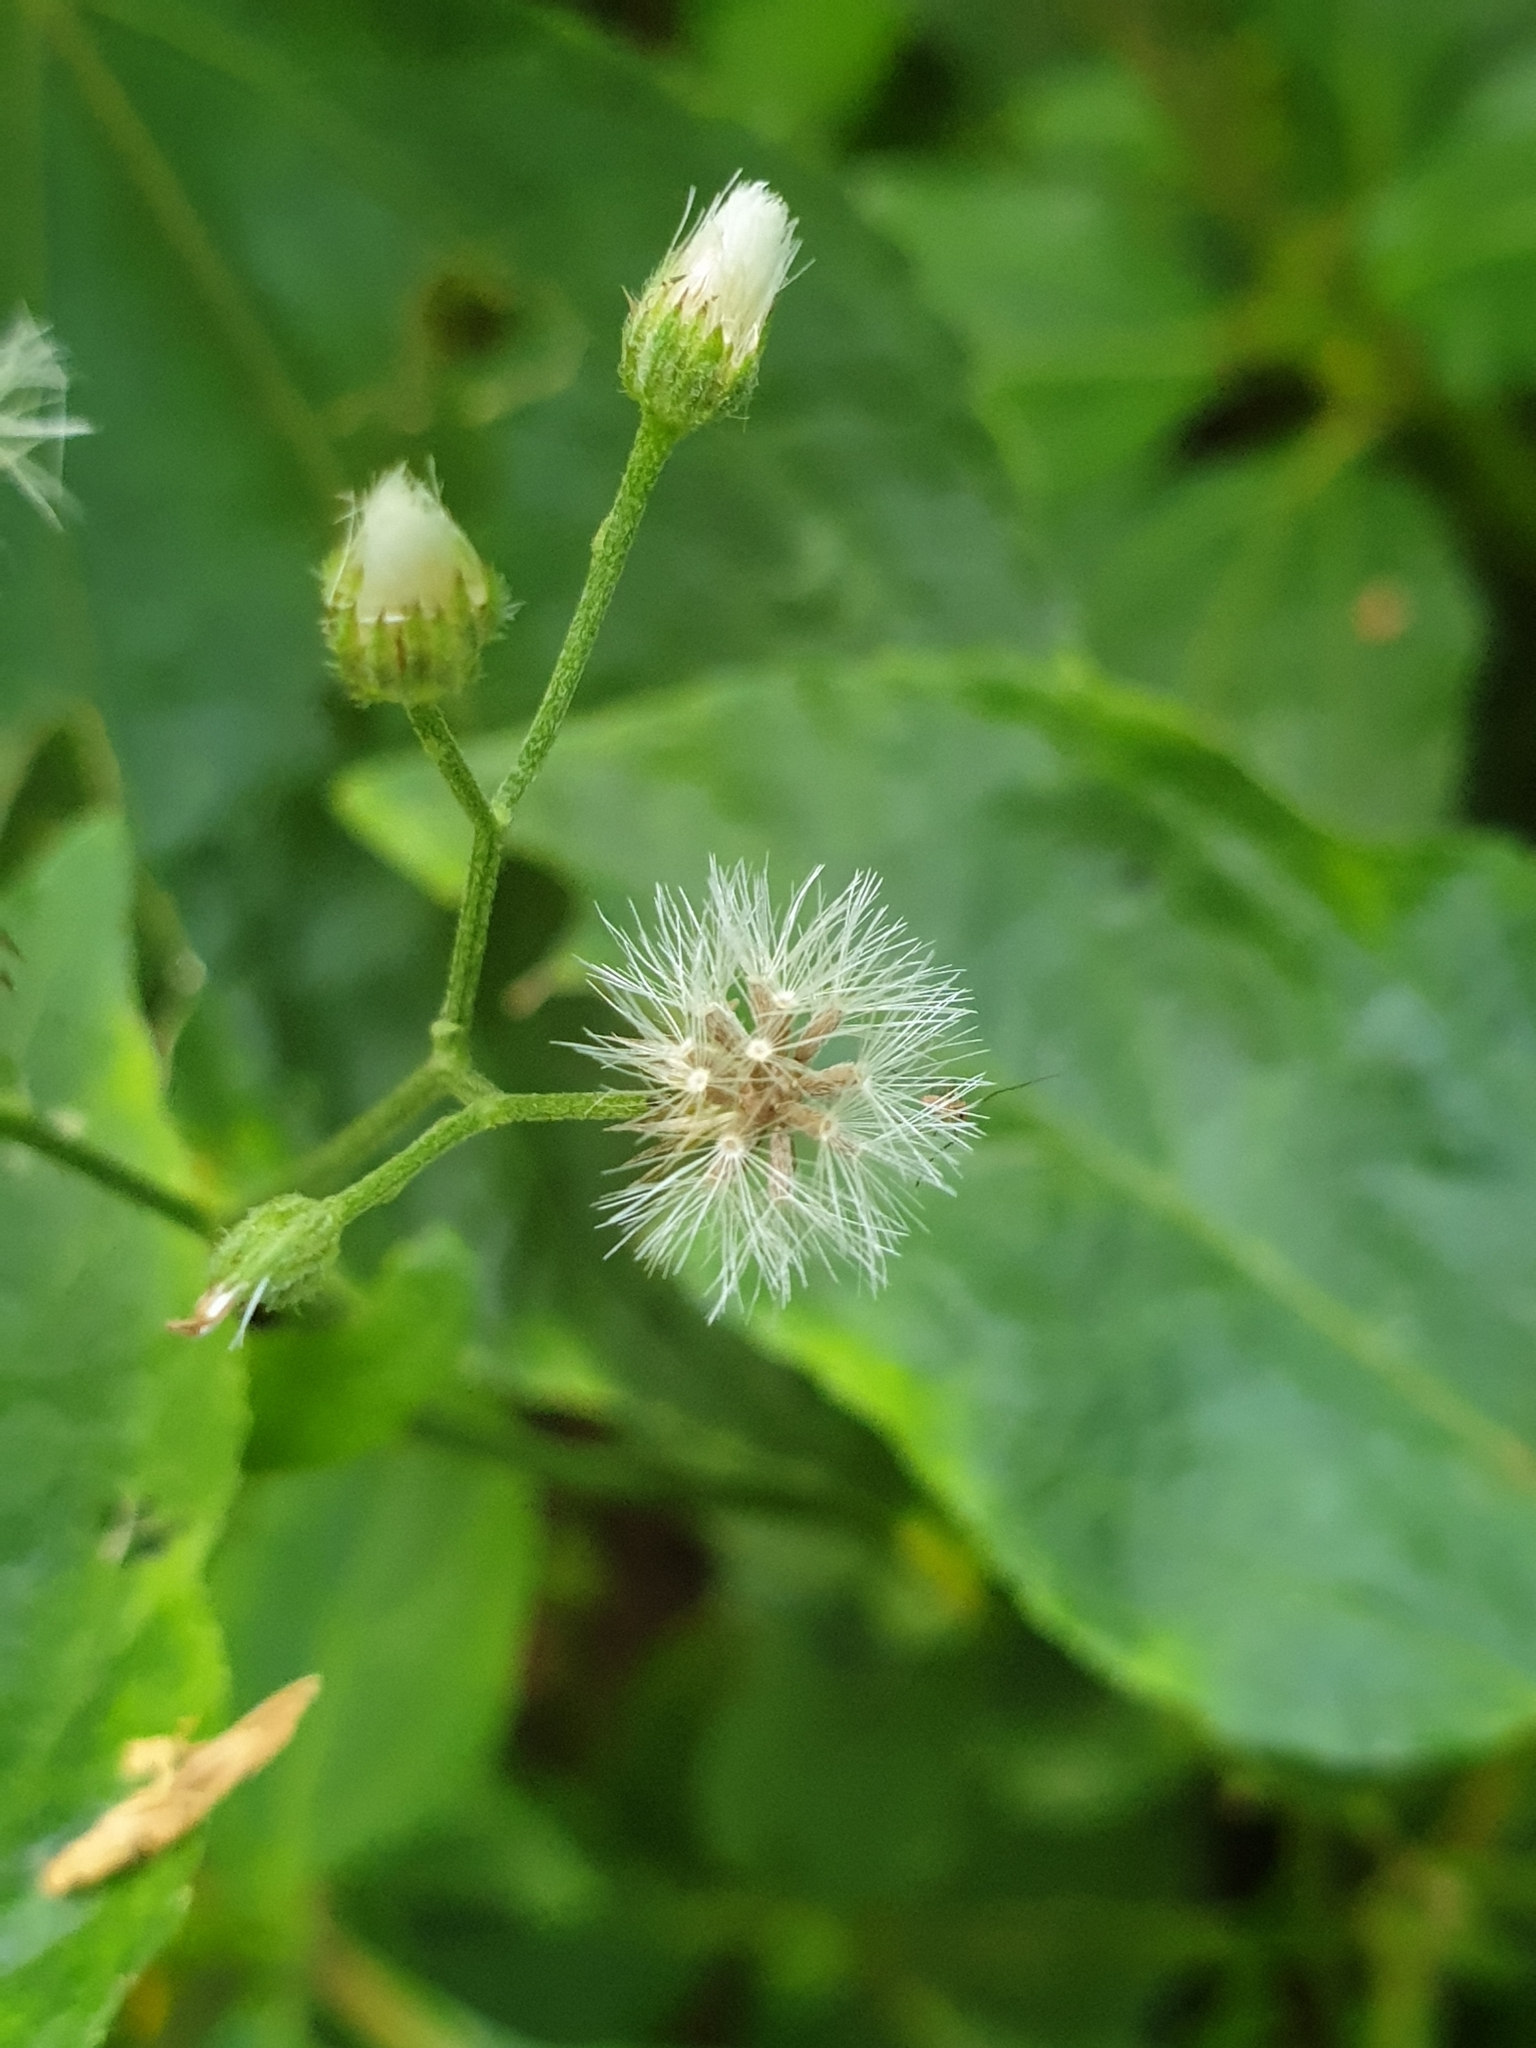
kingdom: Plantae
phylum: Tracheophyta
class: Magnoliopsida
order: Asterales
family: Asteraceae
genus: Cyanthillium
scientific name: Cyanthillium cinereum
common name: Little ironweed
